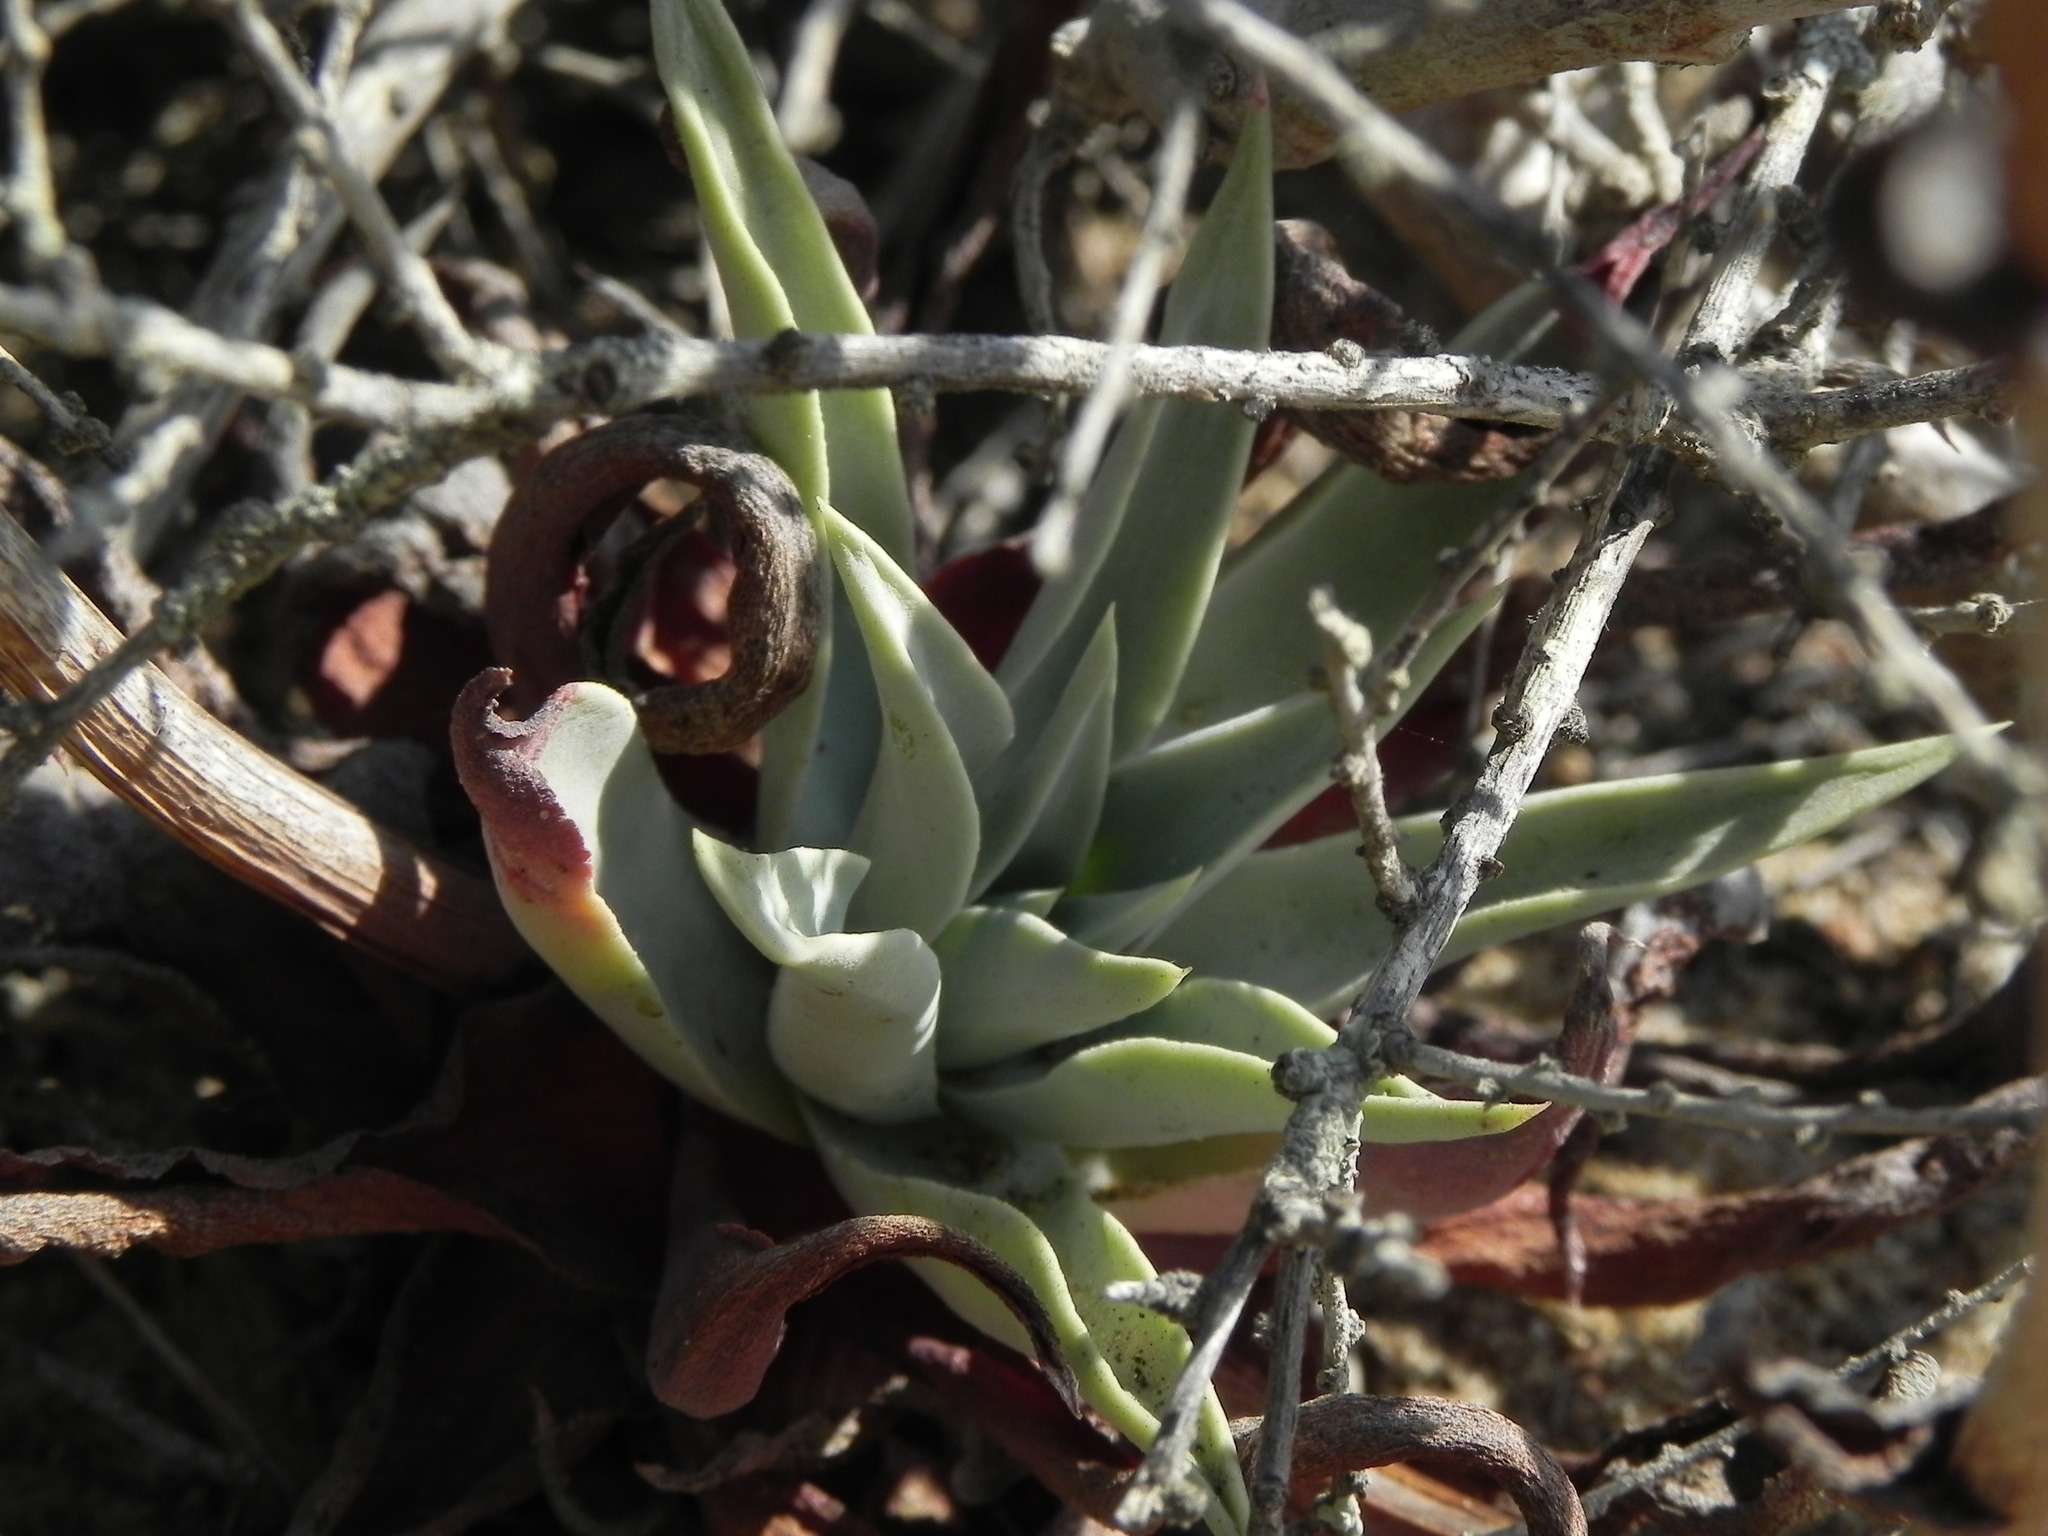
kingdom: Plantae
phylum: Tracheophyta
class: Magnoliopsida
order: Saxifragales
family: Crassulaceae
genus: Dudleya
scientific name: Dudleya lanceolata
